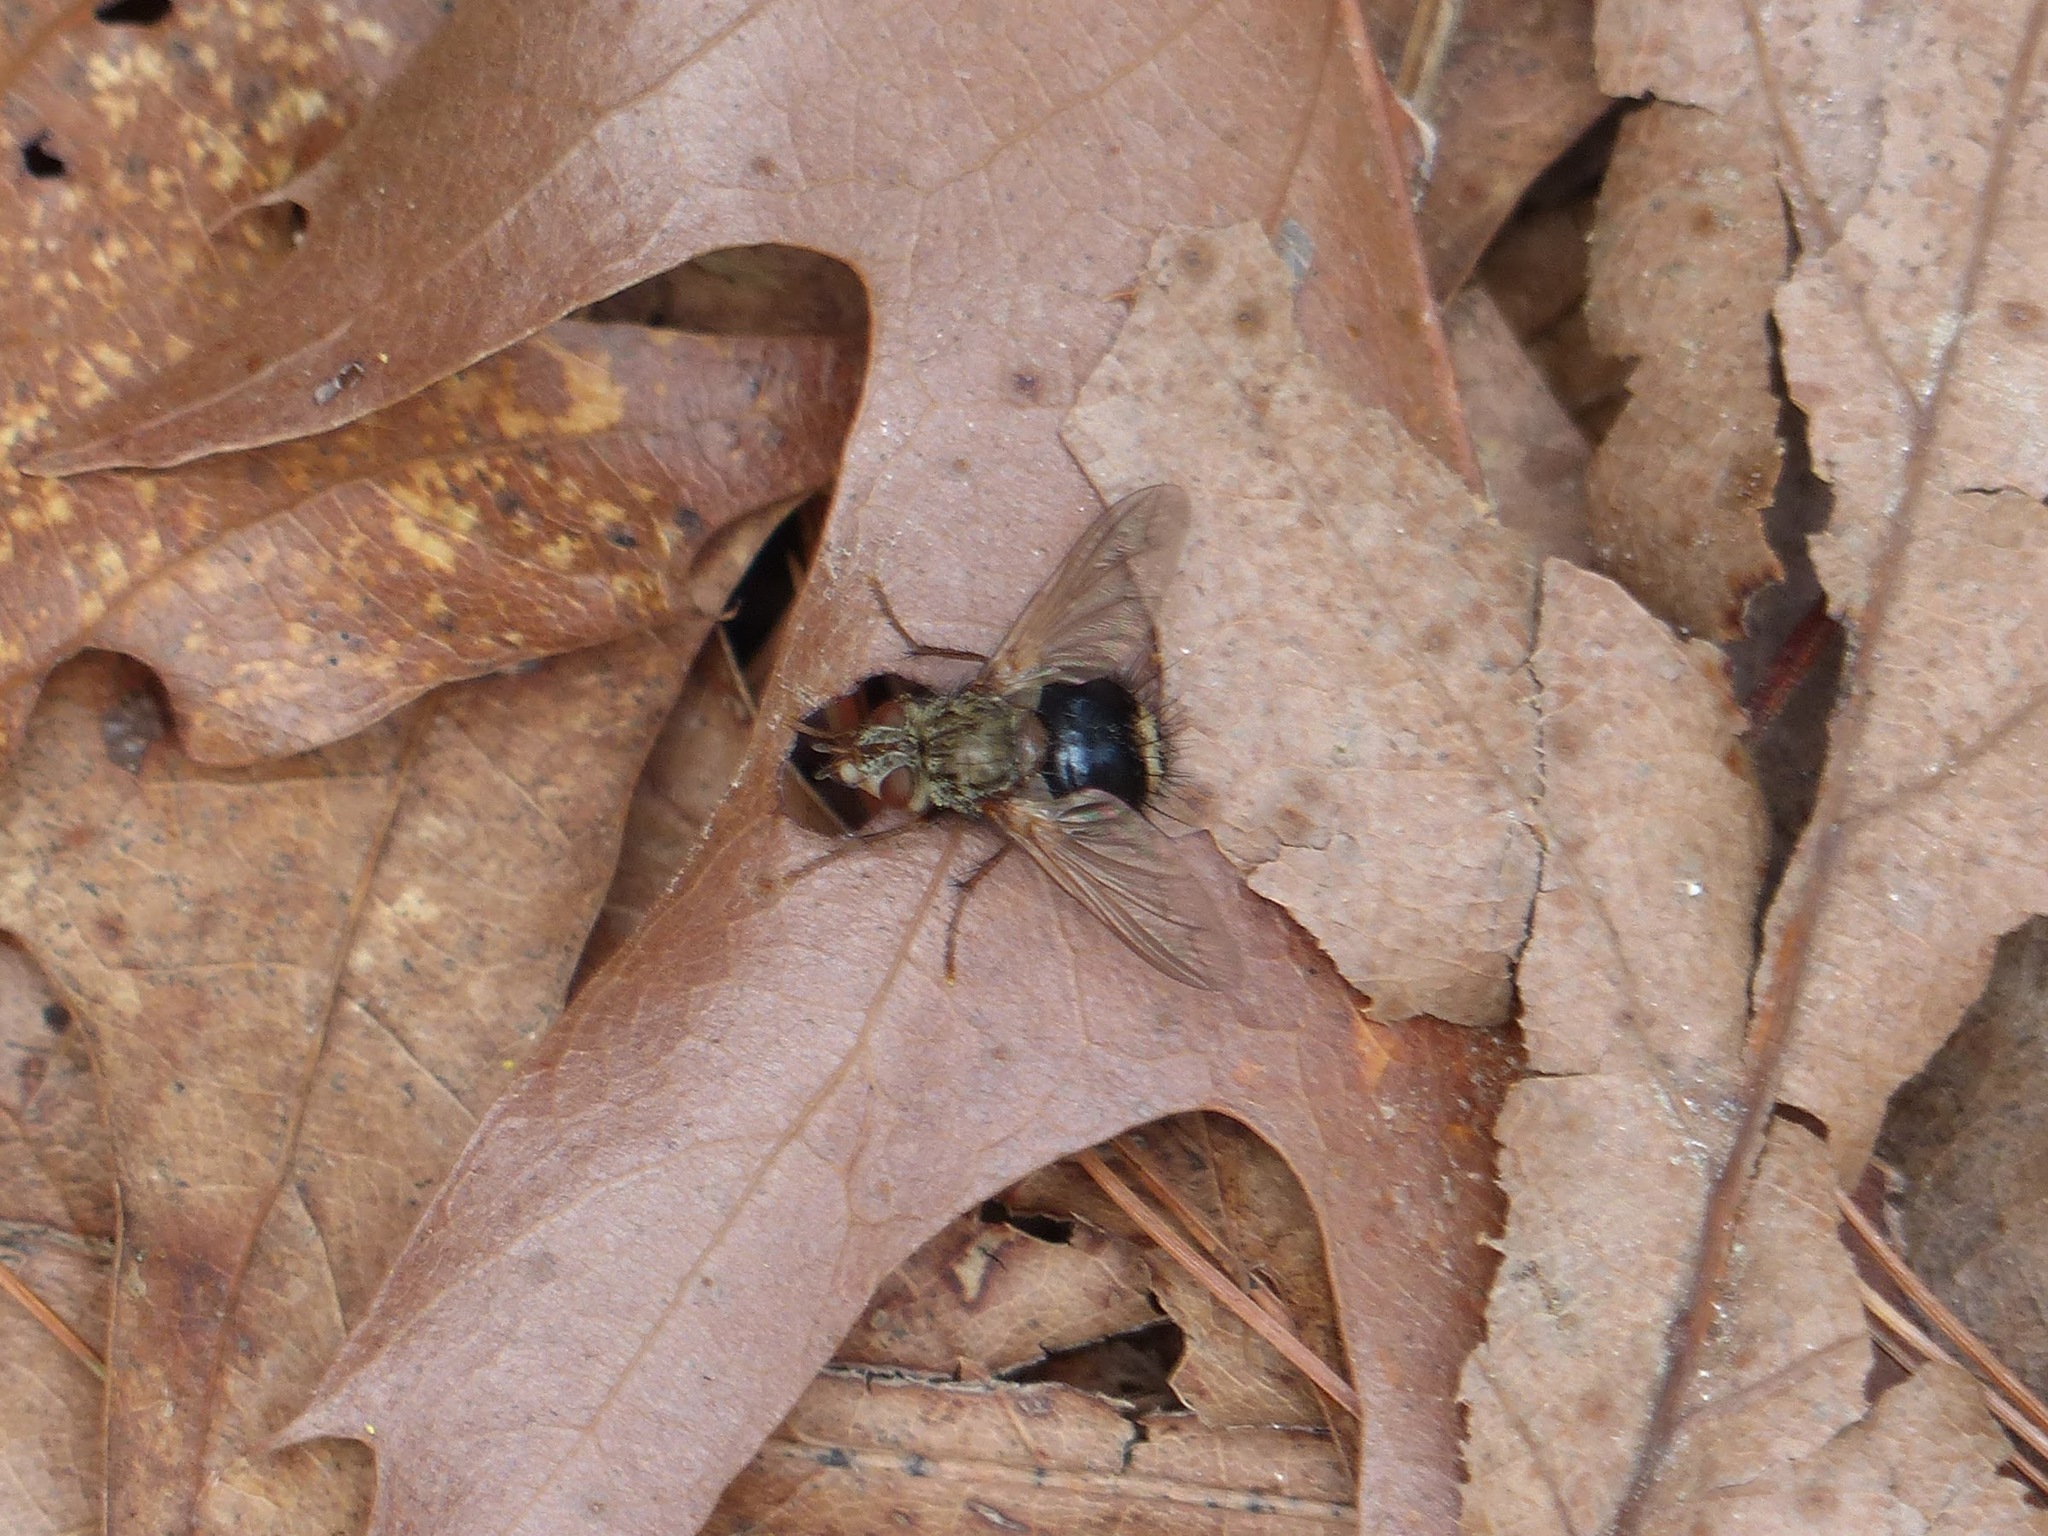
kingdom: Animalia
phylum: Arthropoda
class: Insecta
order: Diptera
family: Tachinidae
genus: Epalpus
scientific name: Epalpus signifer
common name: Early tachinid fly
